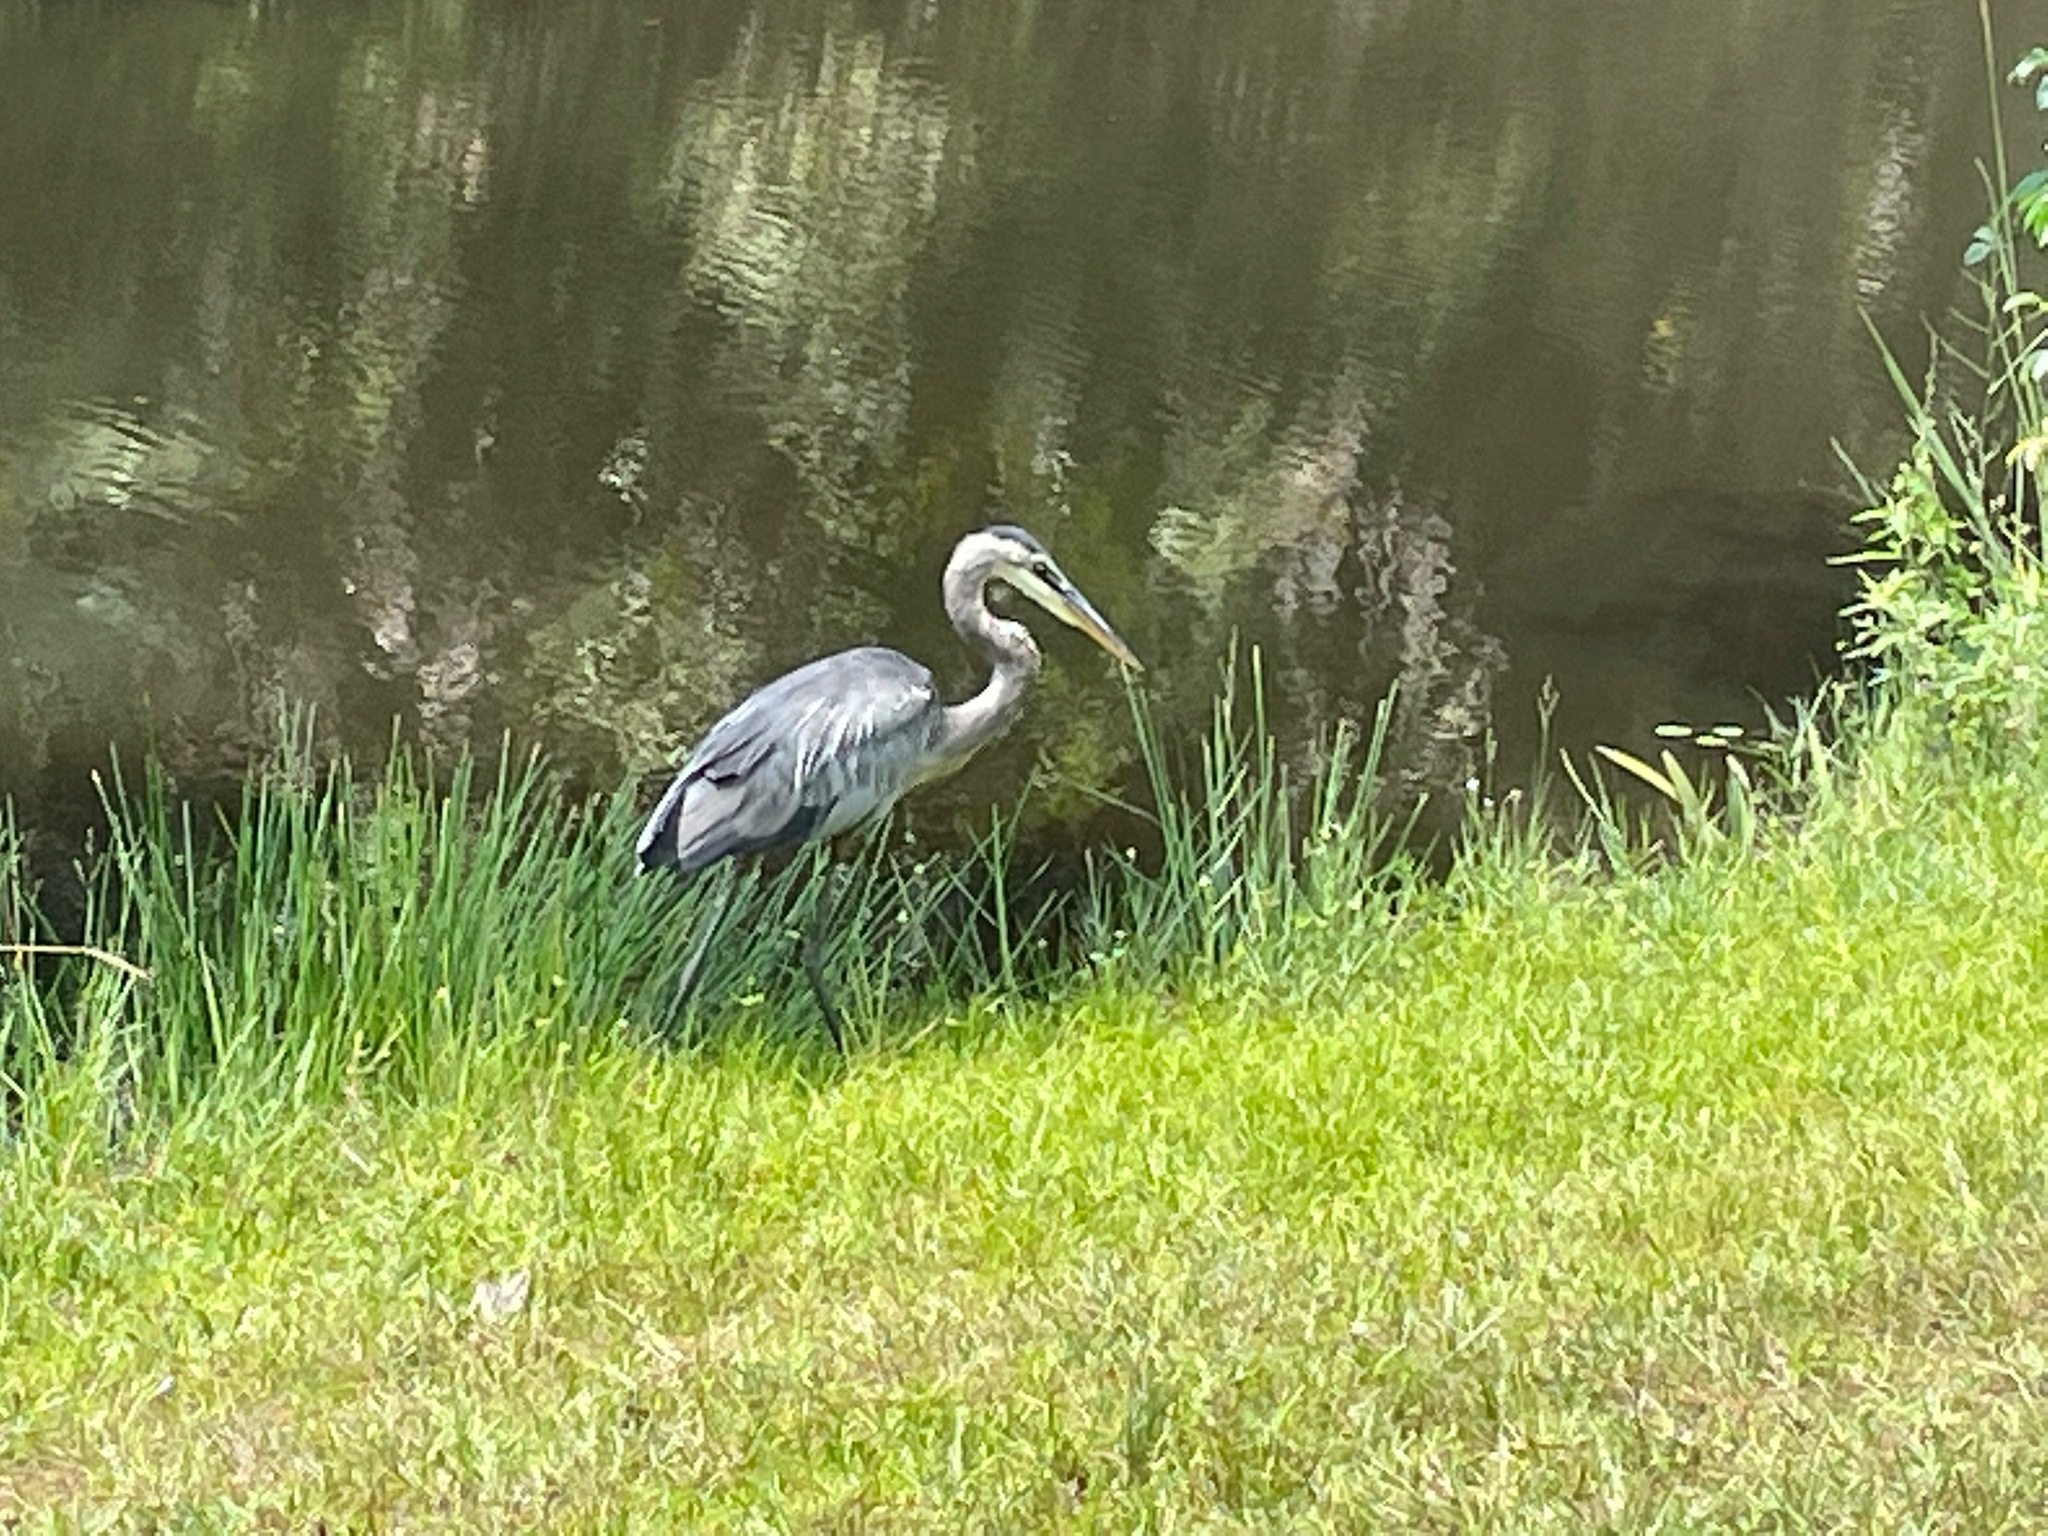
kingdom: Animalia
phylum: Chordata
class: Aves
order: Pelecaniformes
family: Ardeidae
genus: Ardea
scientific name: Ardea herodias
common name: Great blue heron
